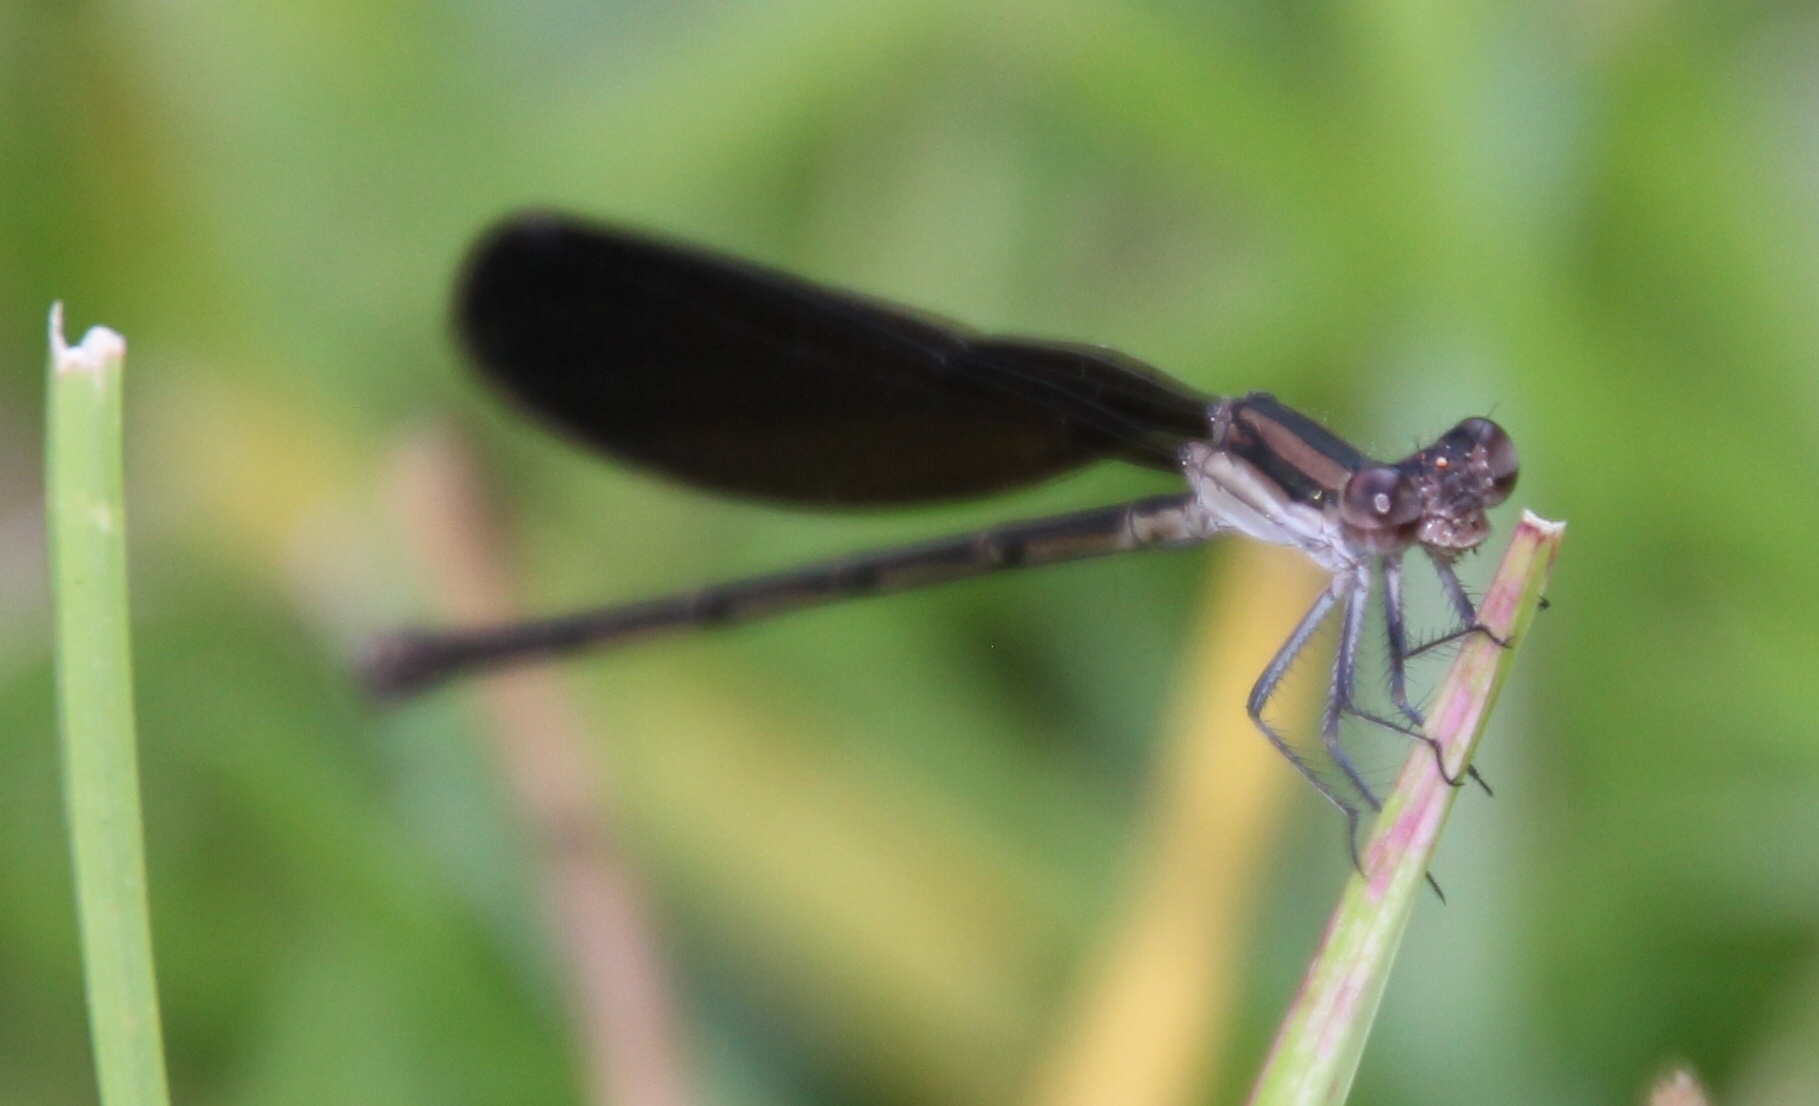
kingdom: Animalia
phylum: Arthropoda
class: Insecta
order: Odonata
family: Coenagrionidae
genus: Argia
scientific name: Argia fumipennis
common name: Variable dancer
